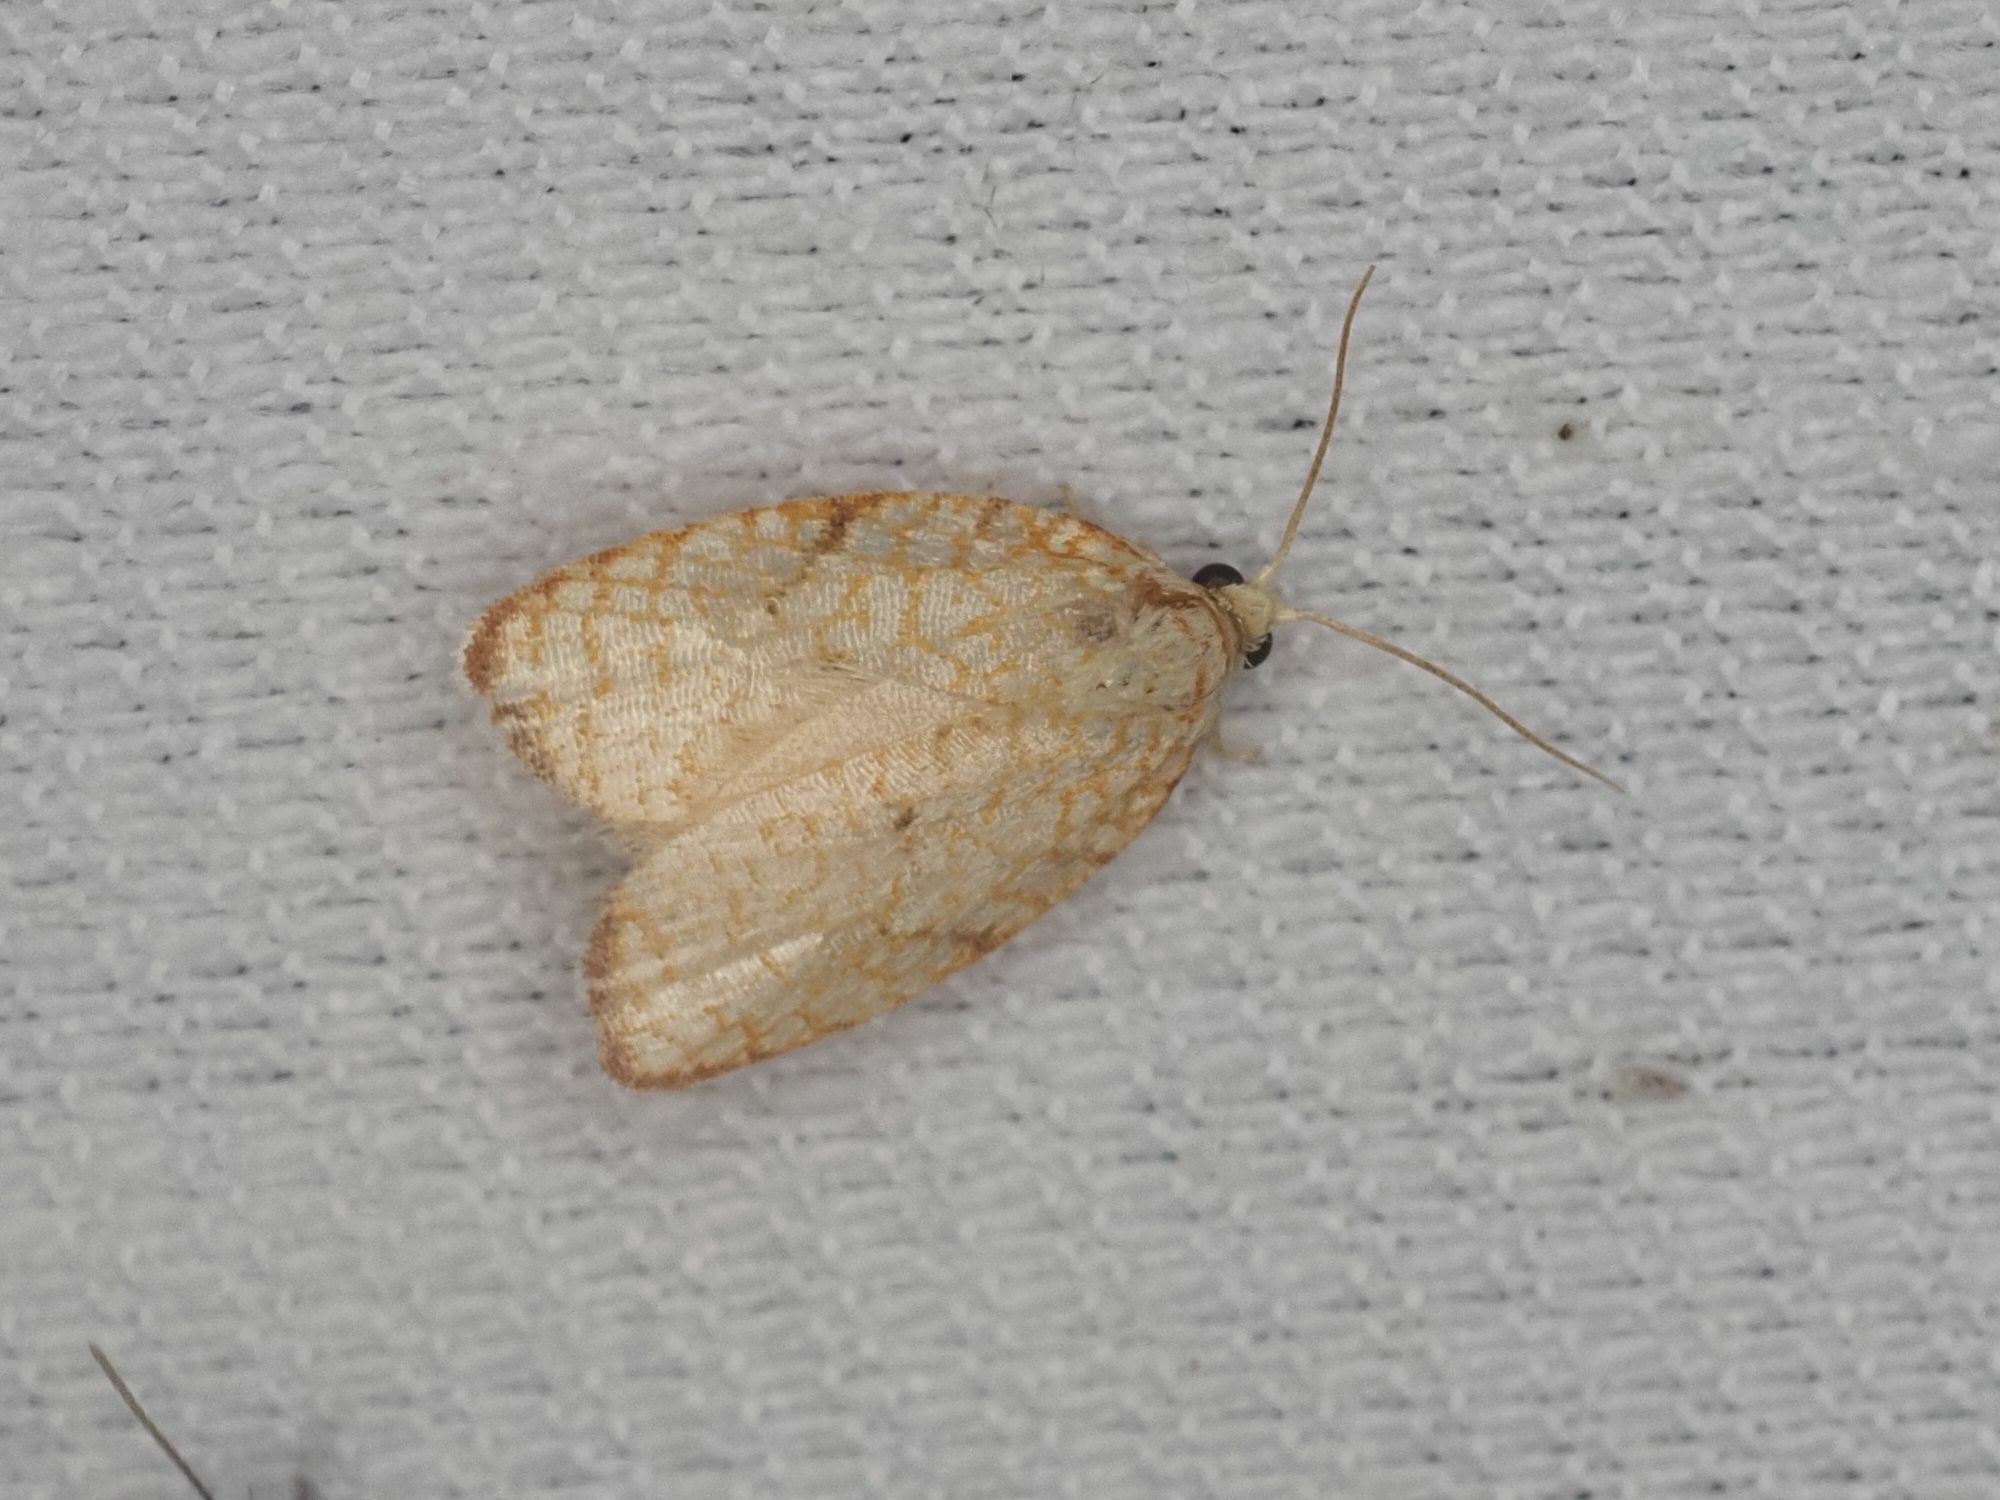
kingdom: Animalia
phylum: Arthropoda
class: Insecta
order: Lepidoptera
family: Tortricidae
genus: Acleris
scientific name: Acleris forsskaleana
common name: Maple button
